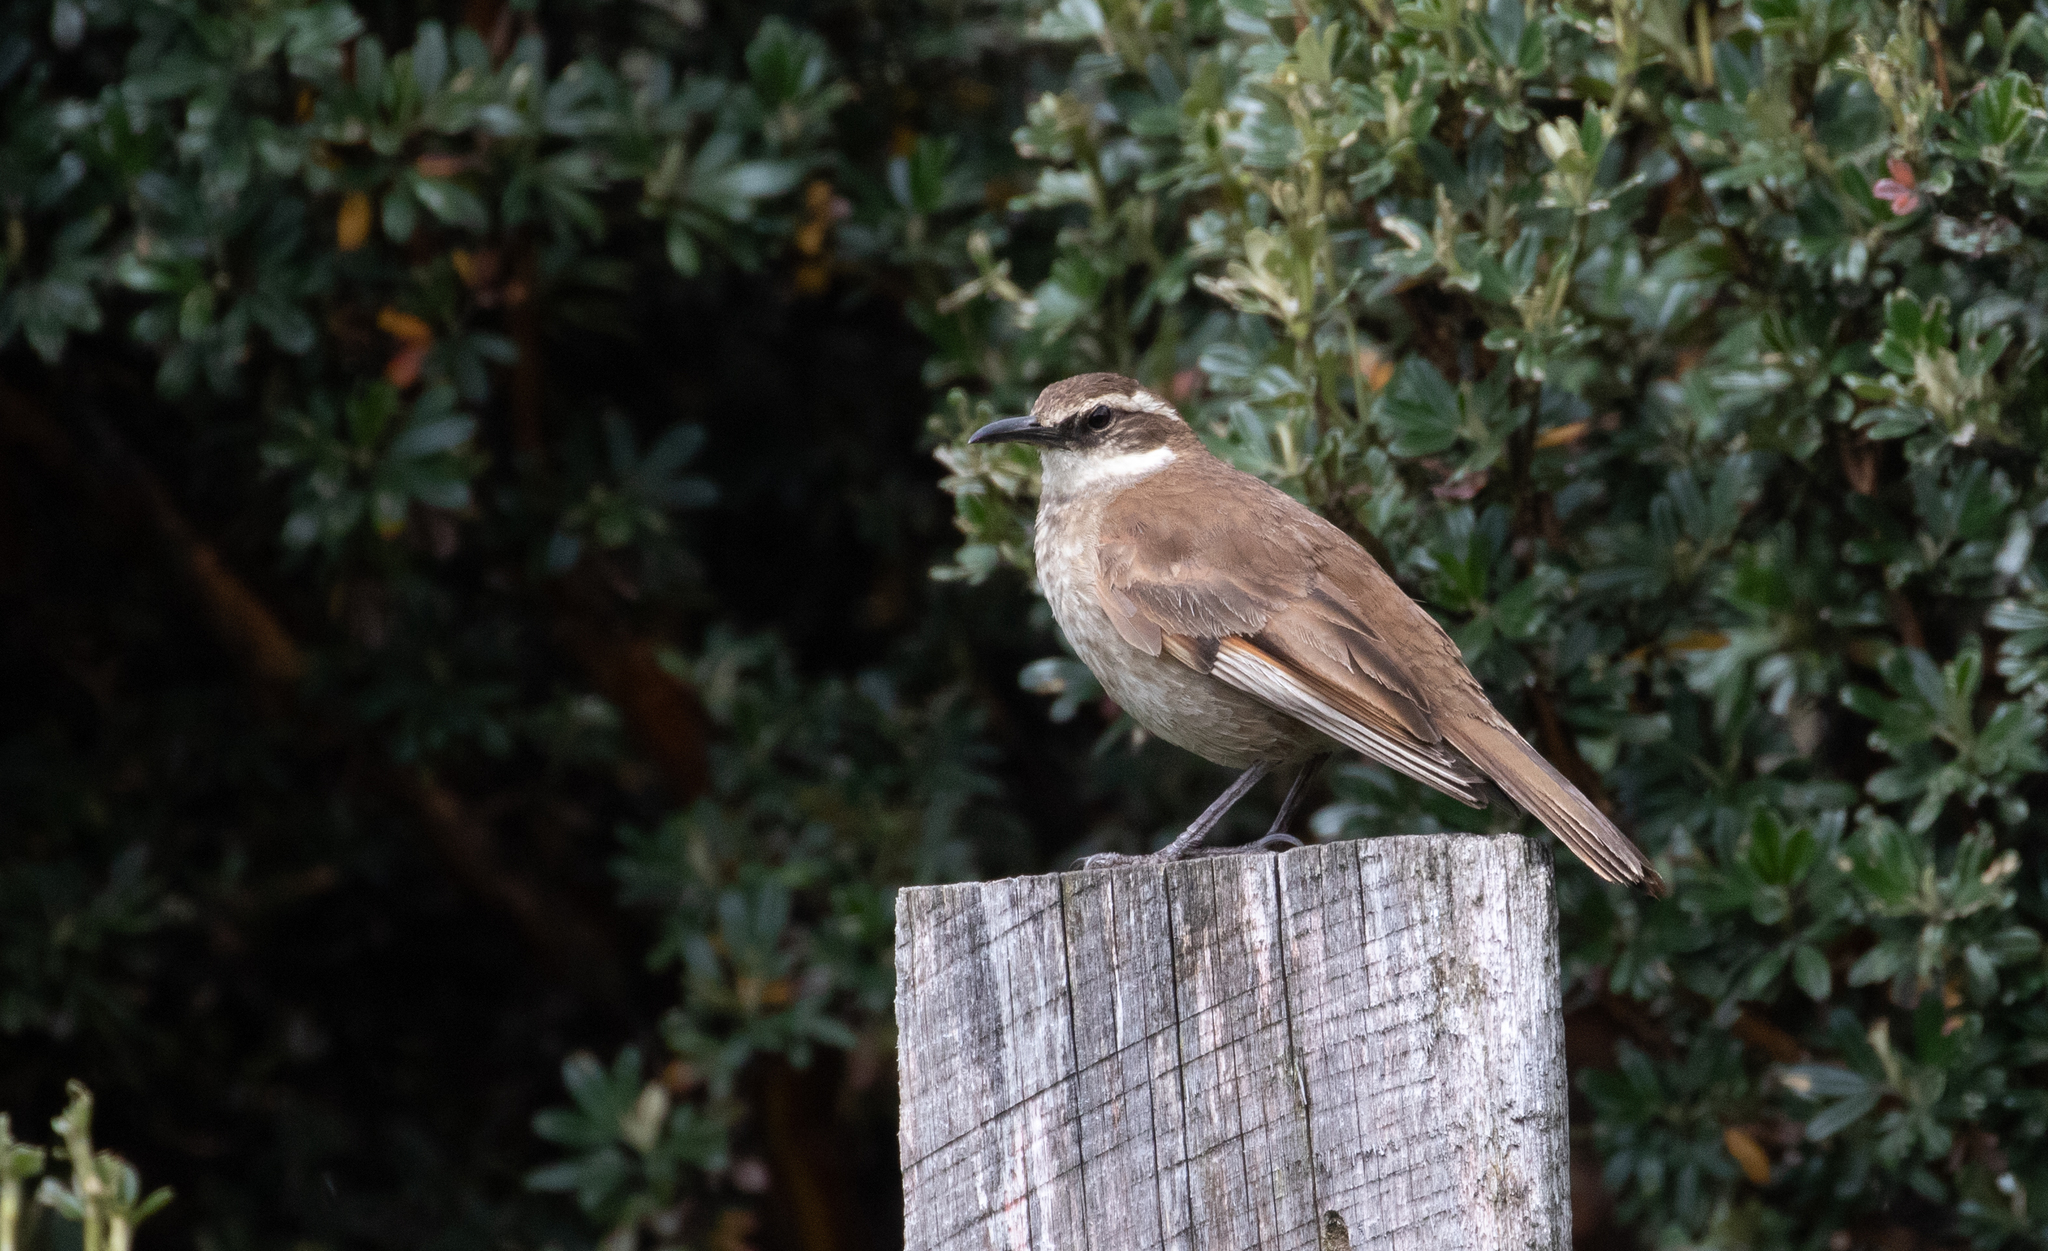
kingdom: Animalia
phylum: Chordata
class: Aves
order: Passeriformes
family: Furnariidae
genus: Cinclodes
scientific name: Cinclodes excelsior
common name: Stout-billed cinclodes
